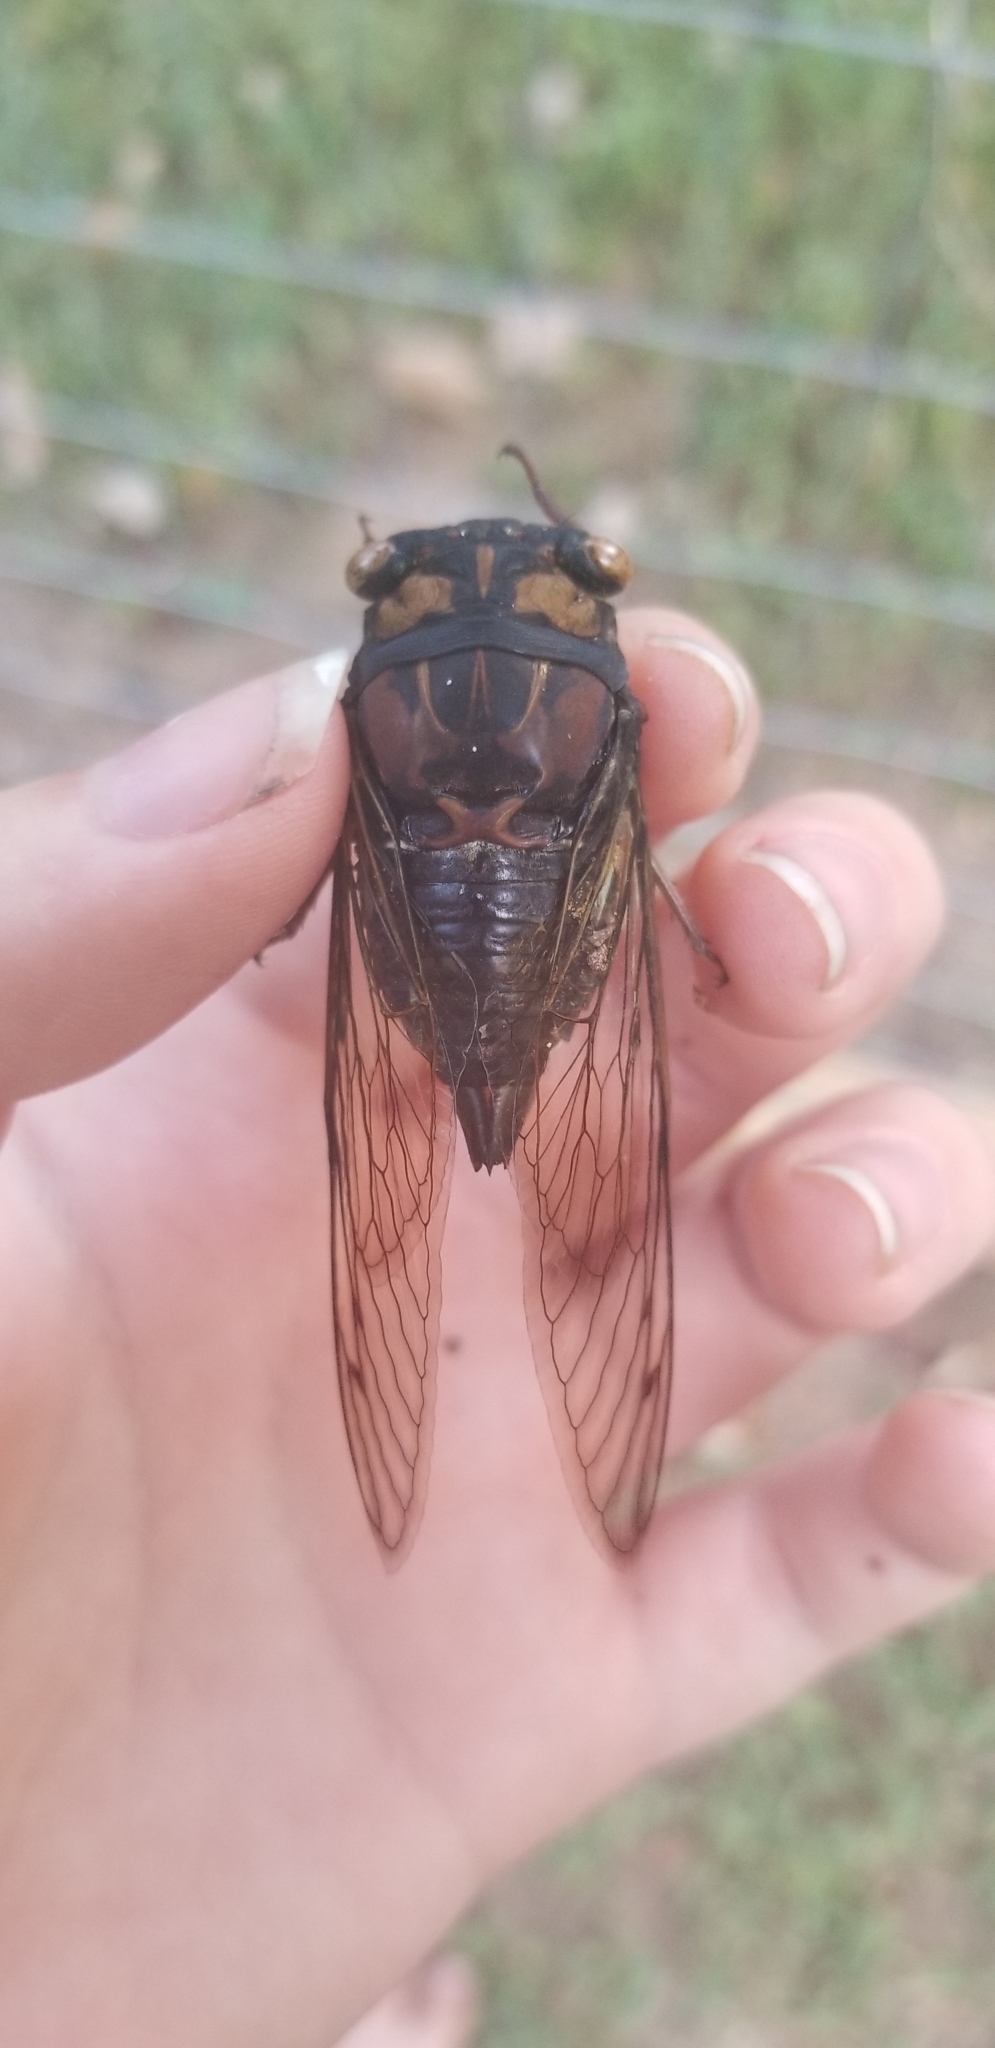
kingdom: Animalia
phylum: Arthropoda
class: Insecta
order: Hemiptera
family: Cicadidae
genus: Neotibicen
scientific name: Neotibicen lyricen
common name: Lyric cicada
